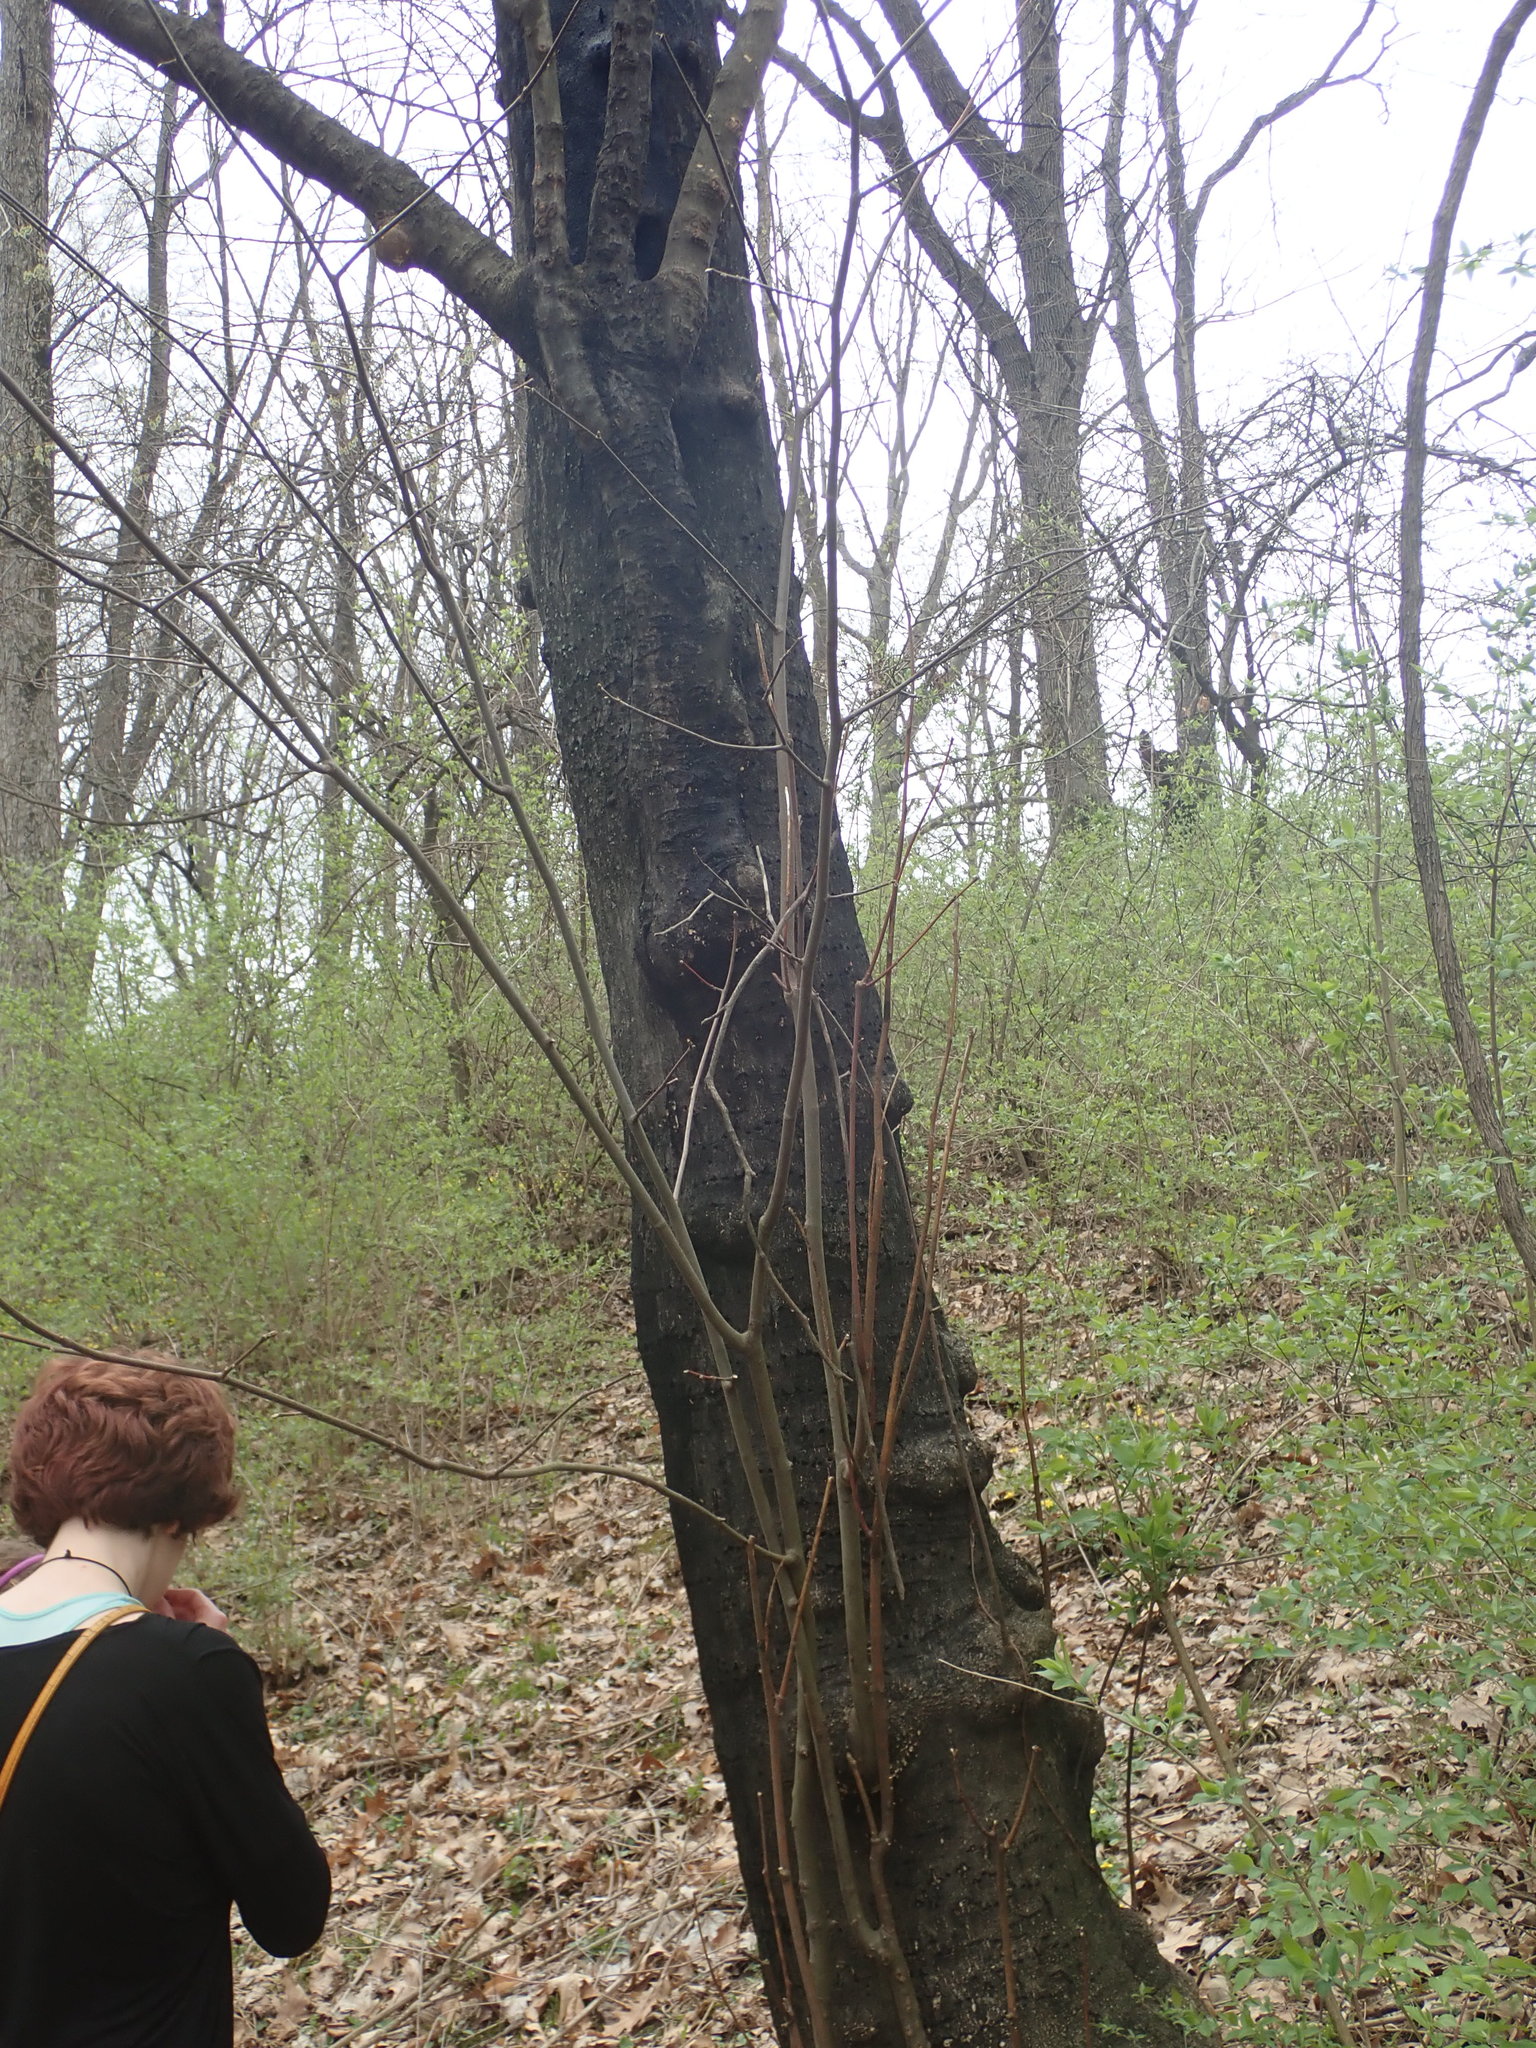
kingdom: Plantae
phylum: Tracheophyta
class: Magnoliopsida
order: Fabales
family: Fabaceae
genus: Cladrastis
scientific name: Cladrastis kentukea
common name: Kentucky yellow-wood
